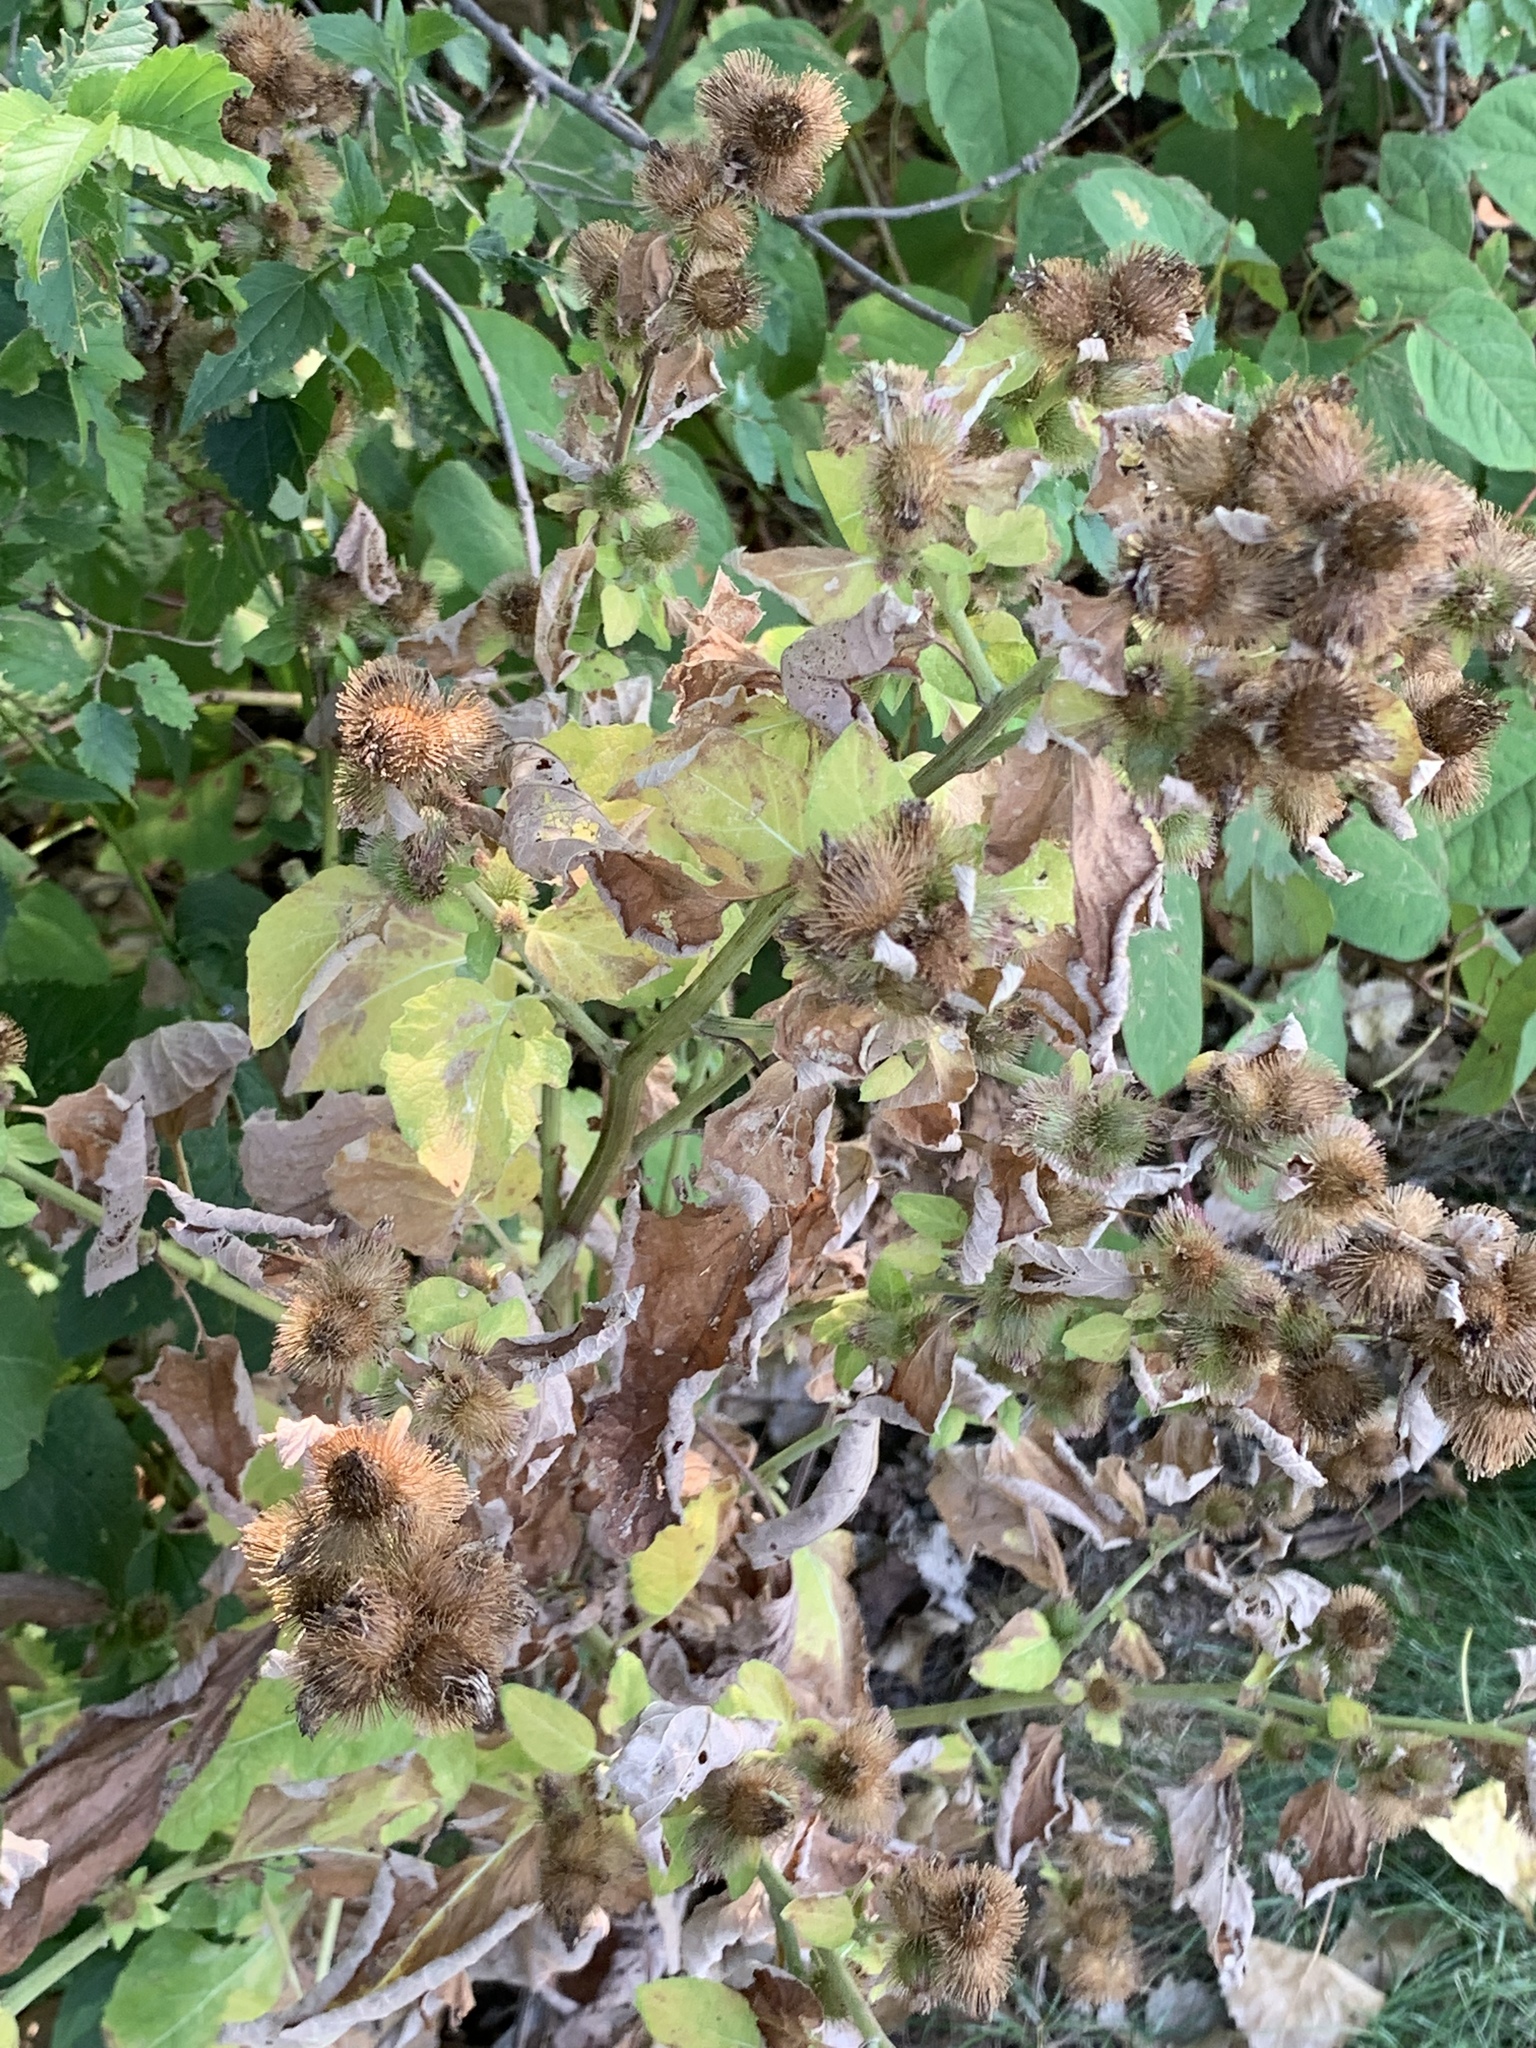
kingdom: Plantae
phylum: Tracheophyta
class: Magnoliopsida
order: Asterales
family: Asteraceae
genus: Arctium
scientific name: Arctium minus
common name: Lesser burdock
